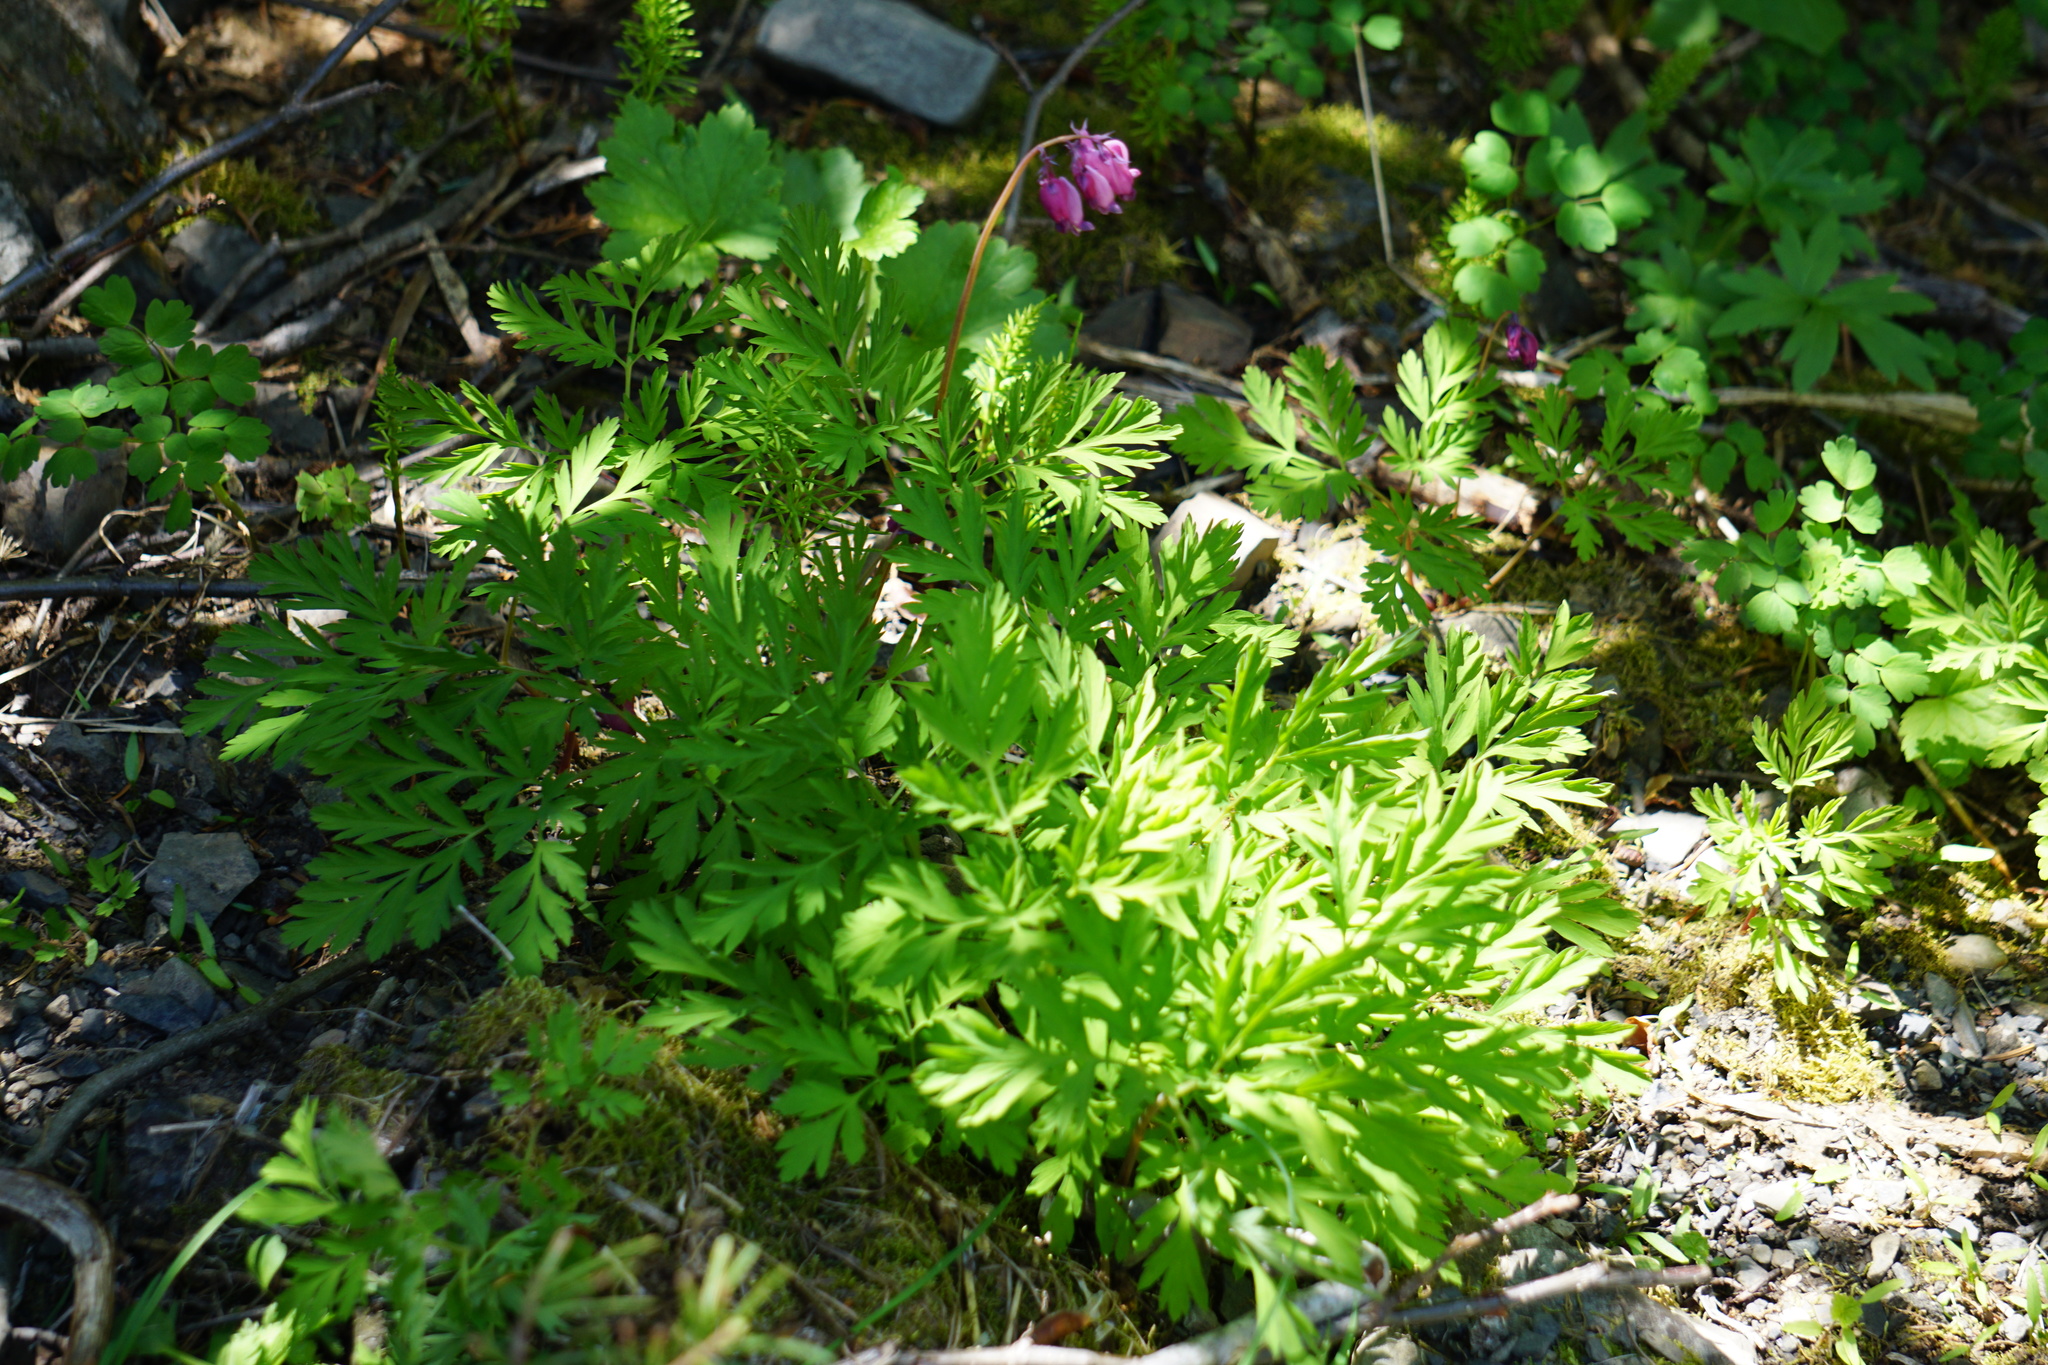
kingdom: Plantae
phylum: Tracheophyta
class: Magnoliopsida
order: Ranunculales
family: Papaveraceae
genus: Dicentra
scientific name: Dicentra formosa
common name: Bleeding-heart
